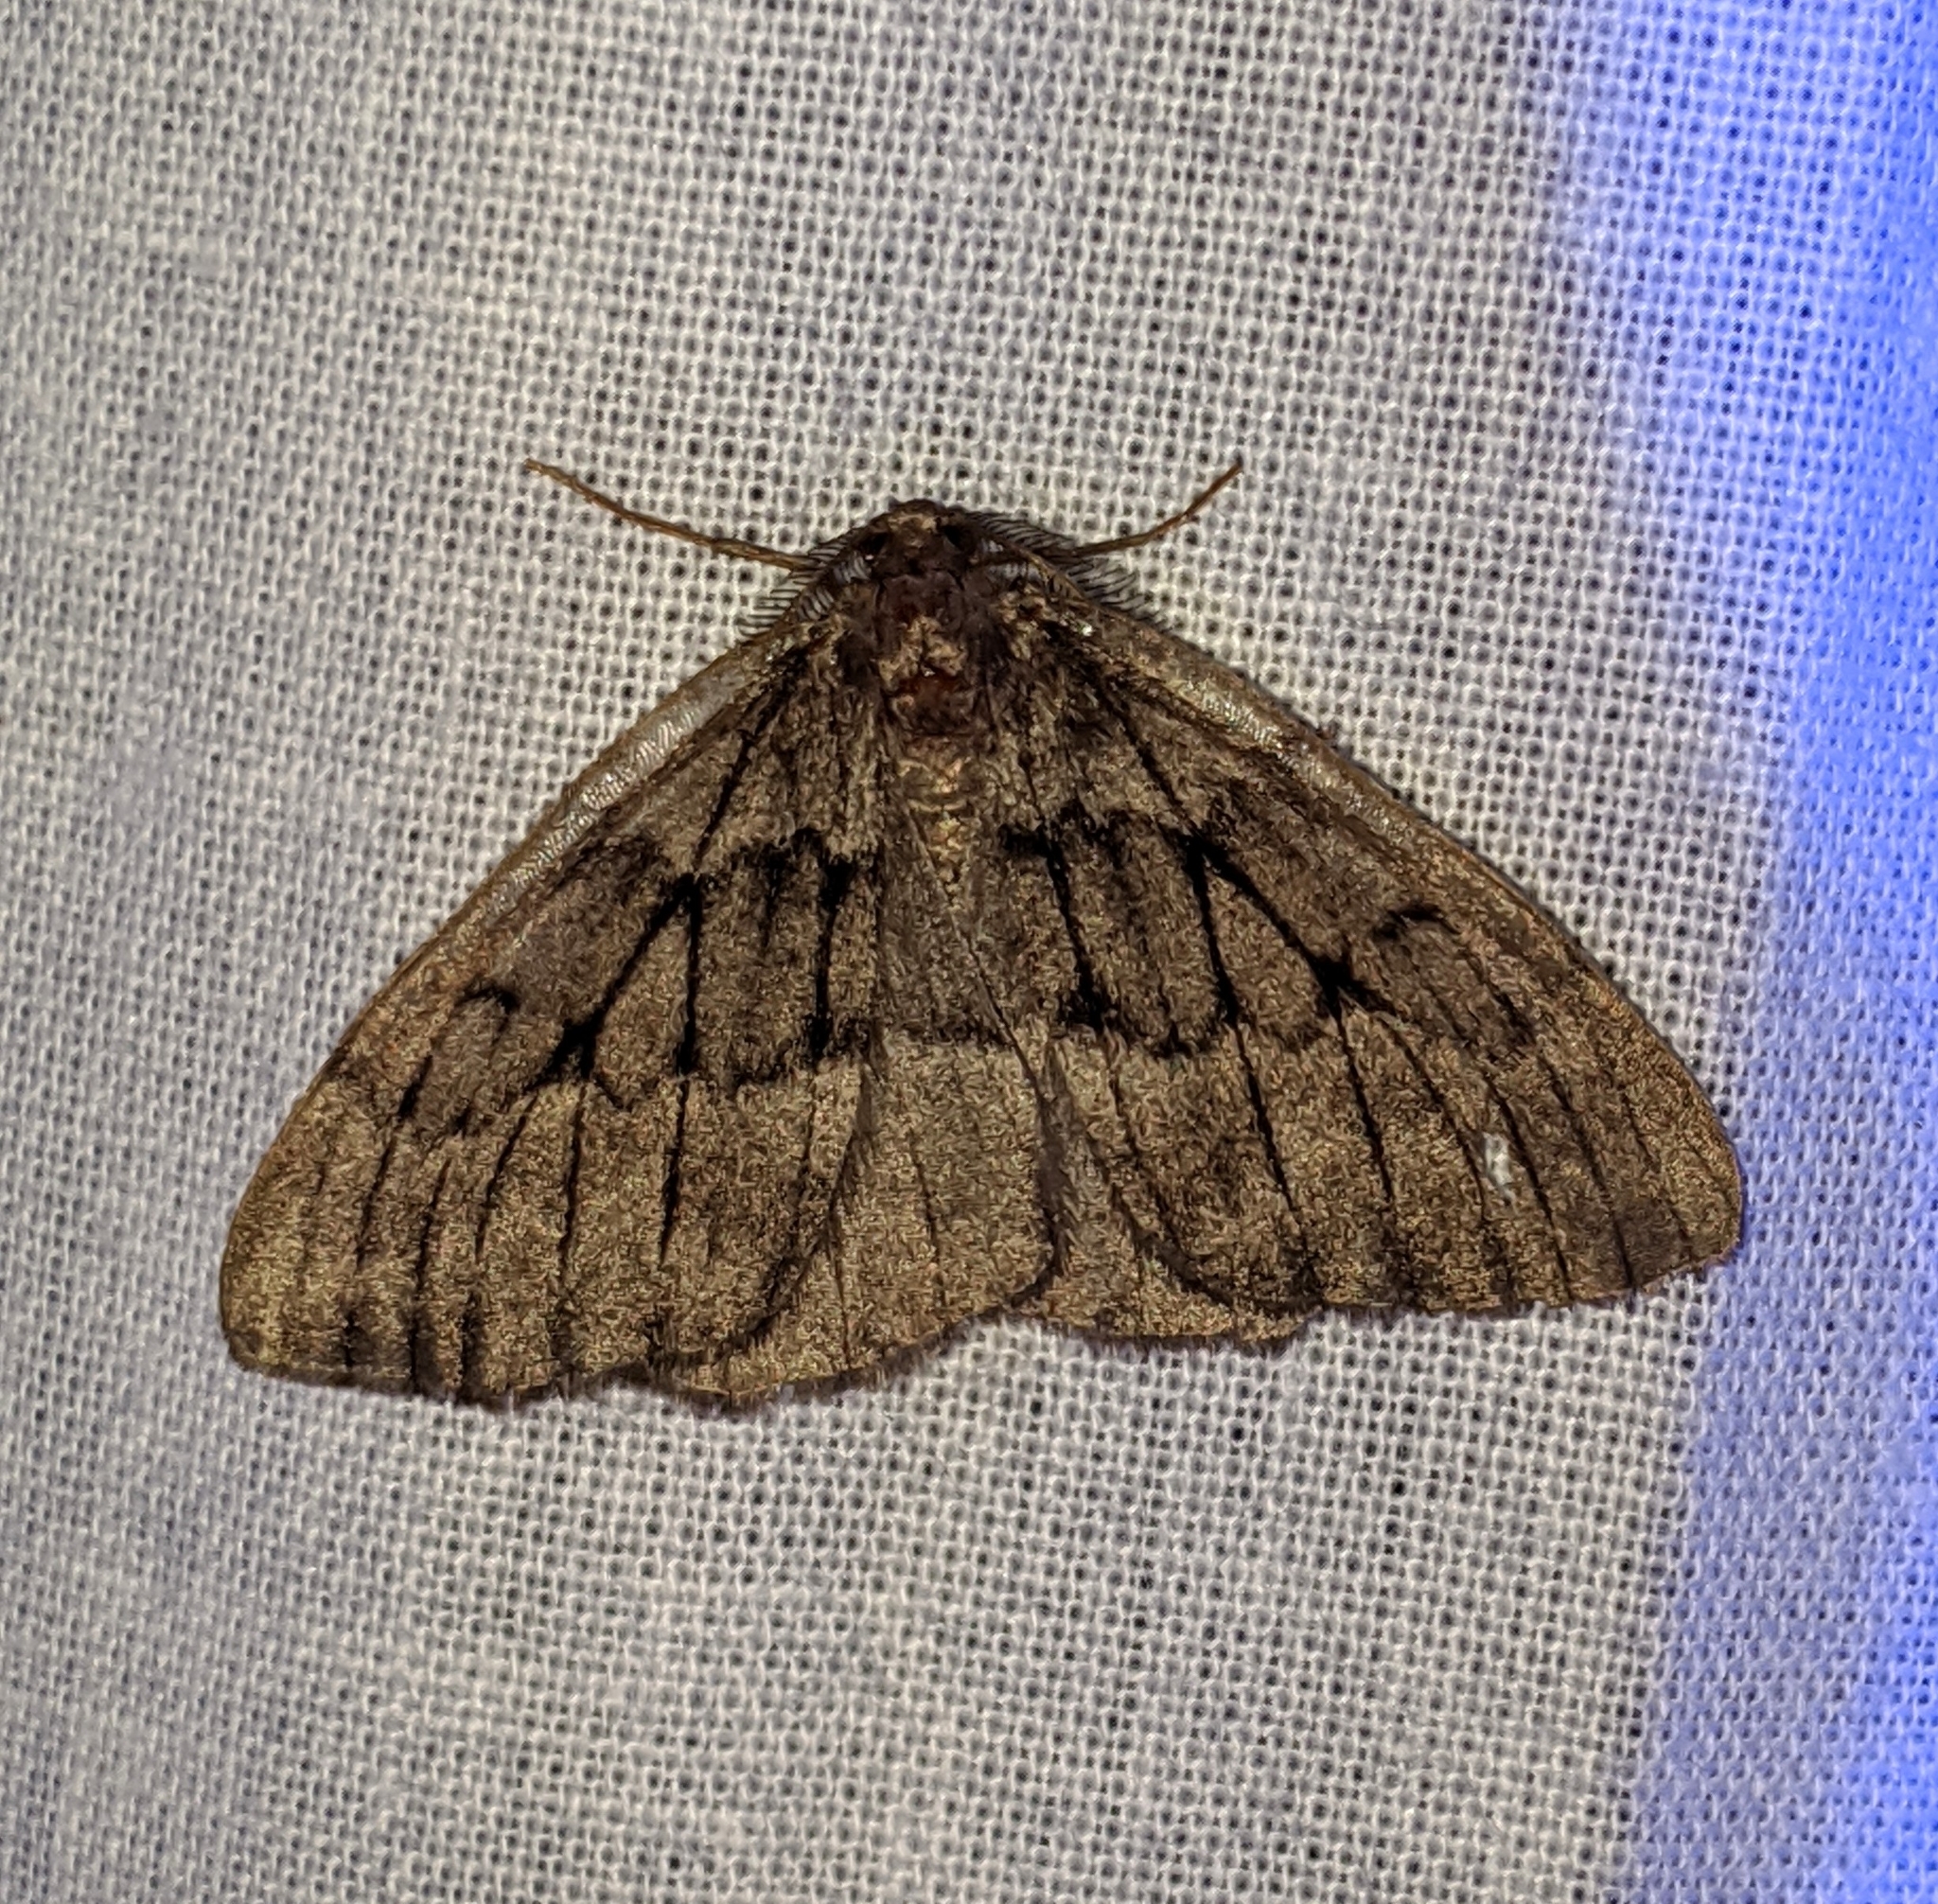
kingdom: Animalia
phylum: Arthropoda
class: Insecta
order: Lepidoptera
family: Geometridae
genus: Nepytia
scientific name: Nepytia umbrosaria
